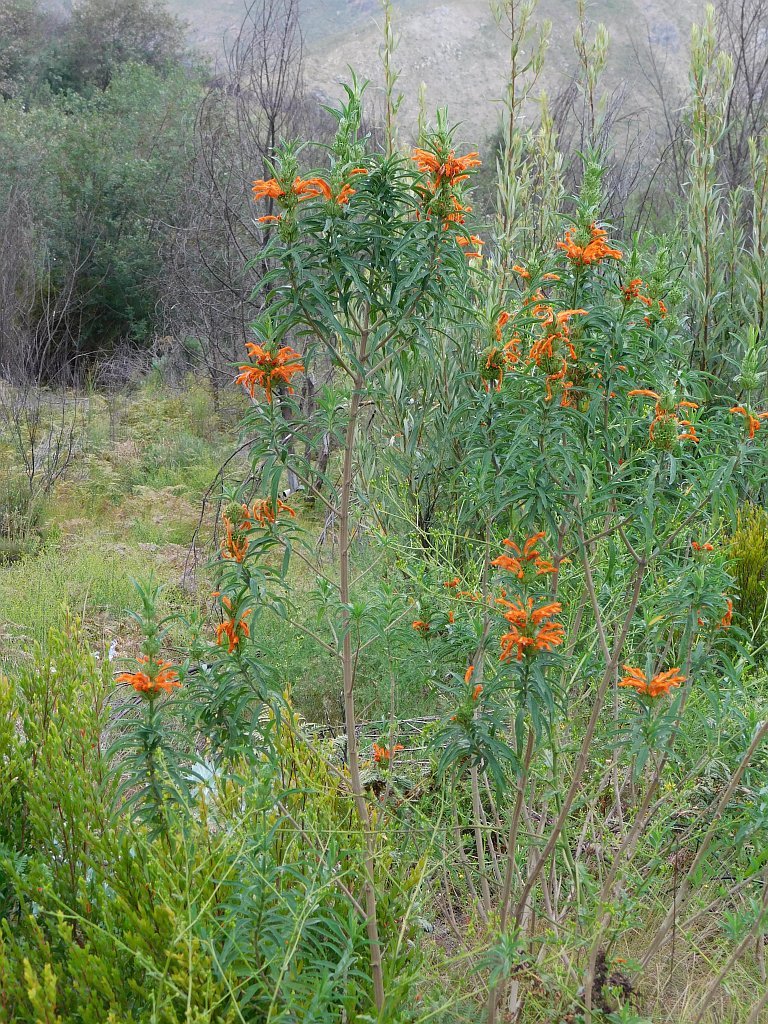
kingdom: Plantae
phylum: Tracheophyta
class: Magnoliopsida
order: Lamiales
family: Lamiaceae
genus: Leonotis
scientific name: Leonotis leonurus
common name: Lion's ear
